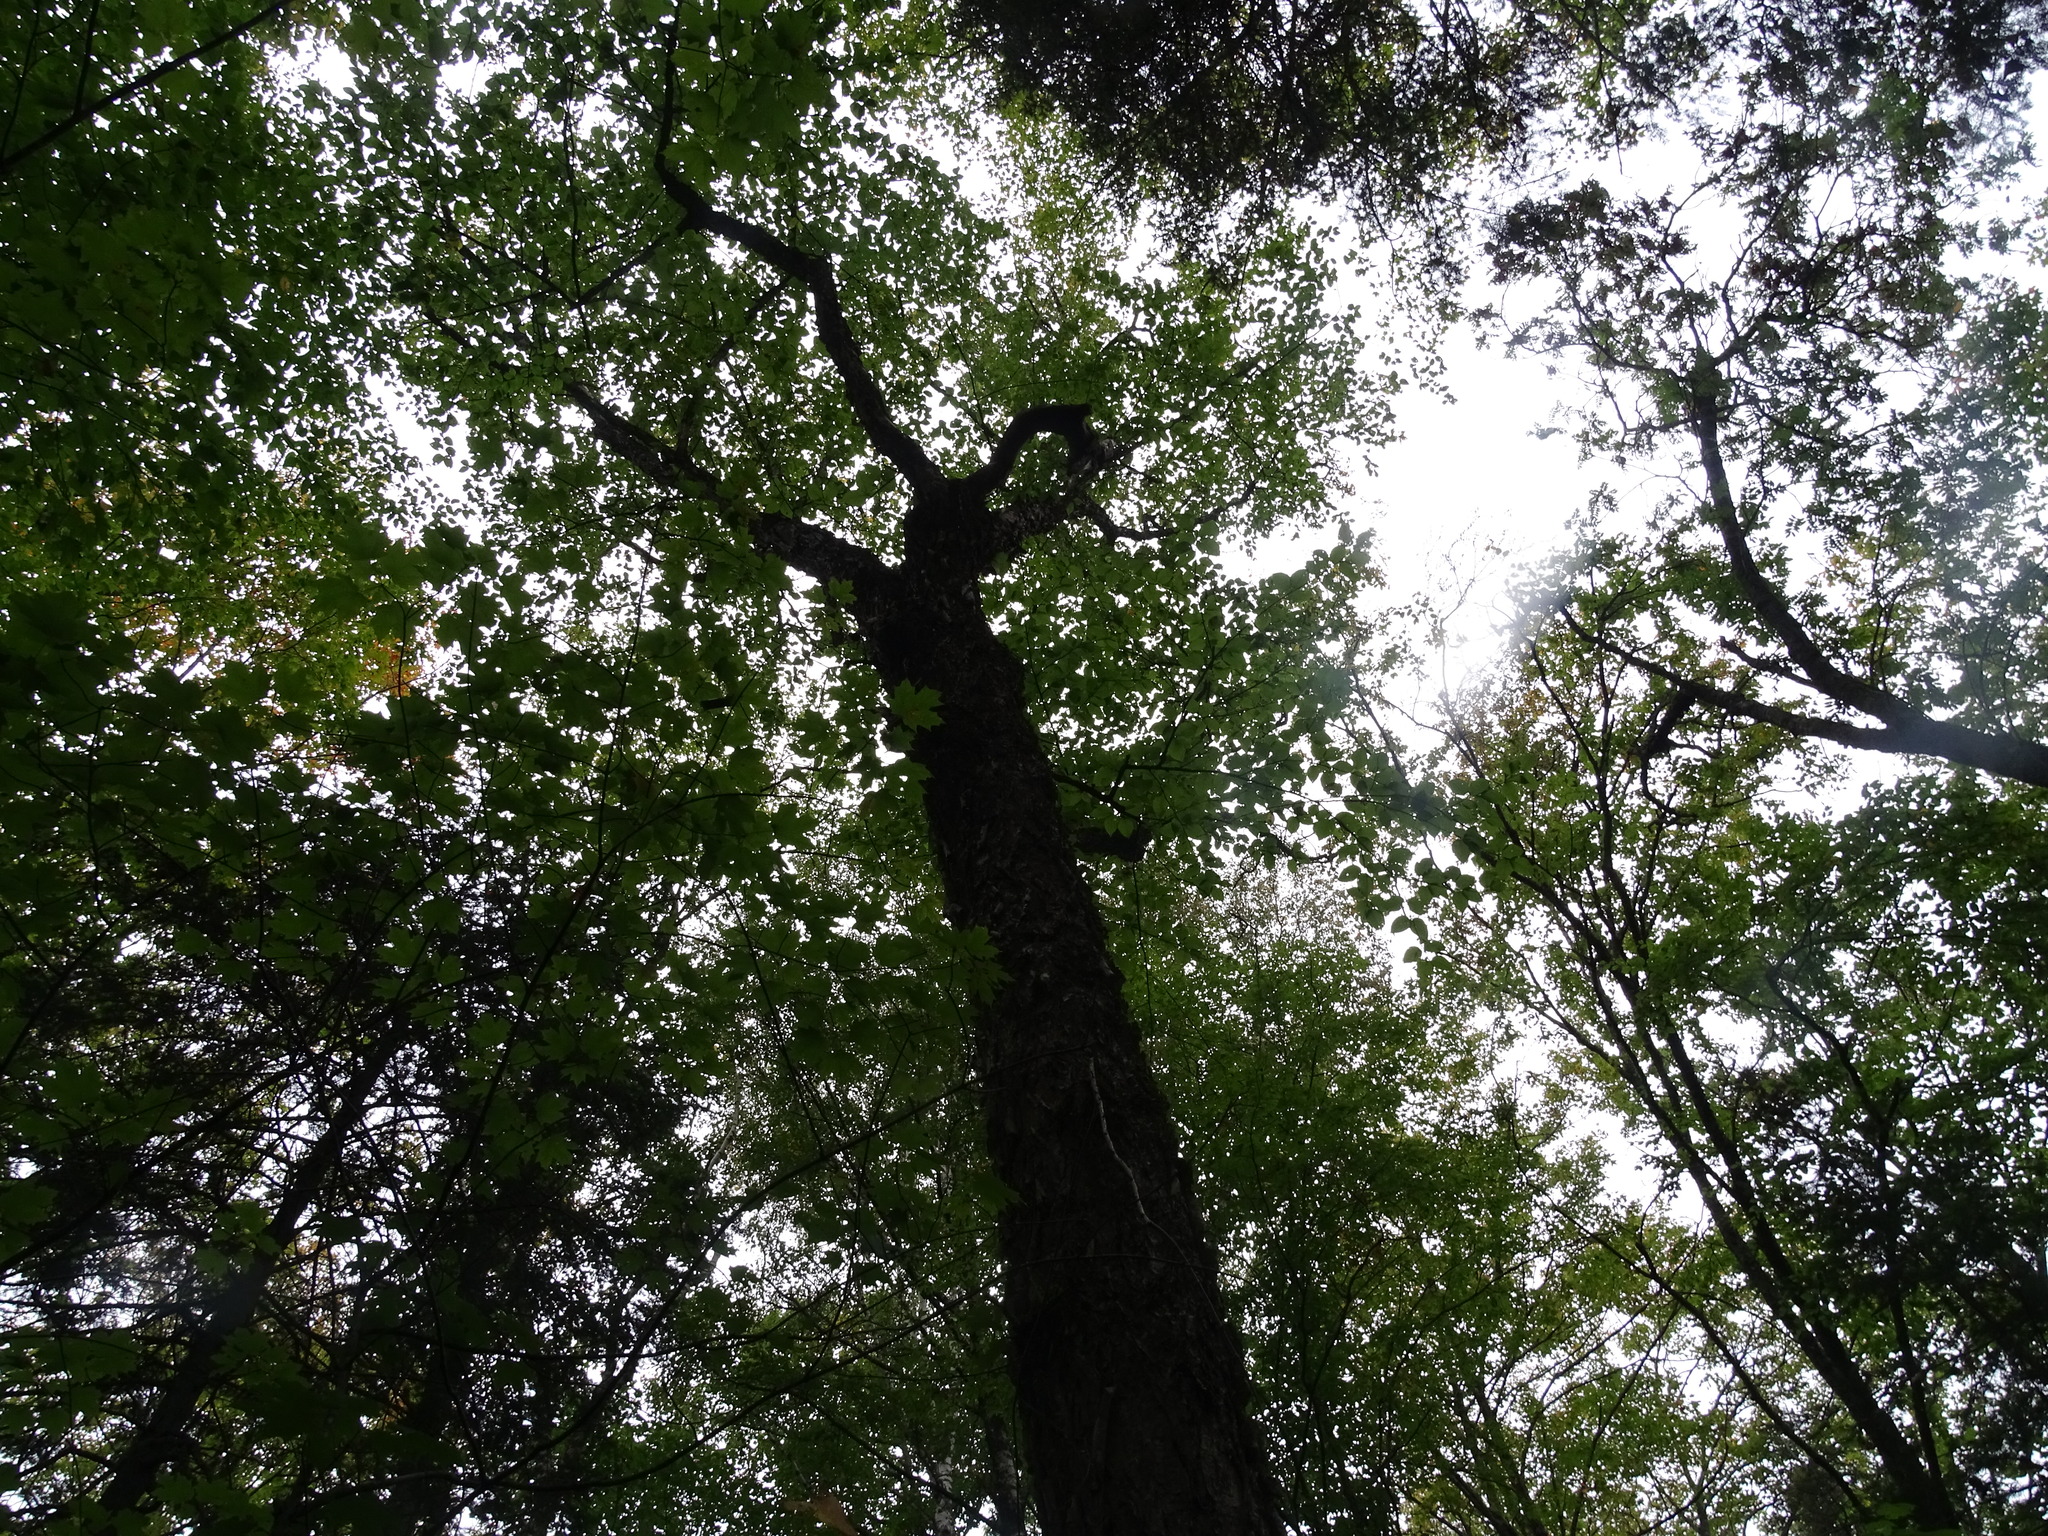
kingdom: Plantae
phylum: Tracheophyta
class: Magnoliopsida
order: Fagales
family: Betulaceae
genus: Betula
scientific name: Betula alleghaniensis
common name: Yellow birch
